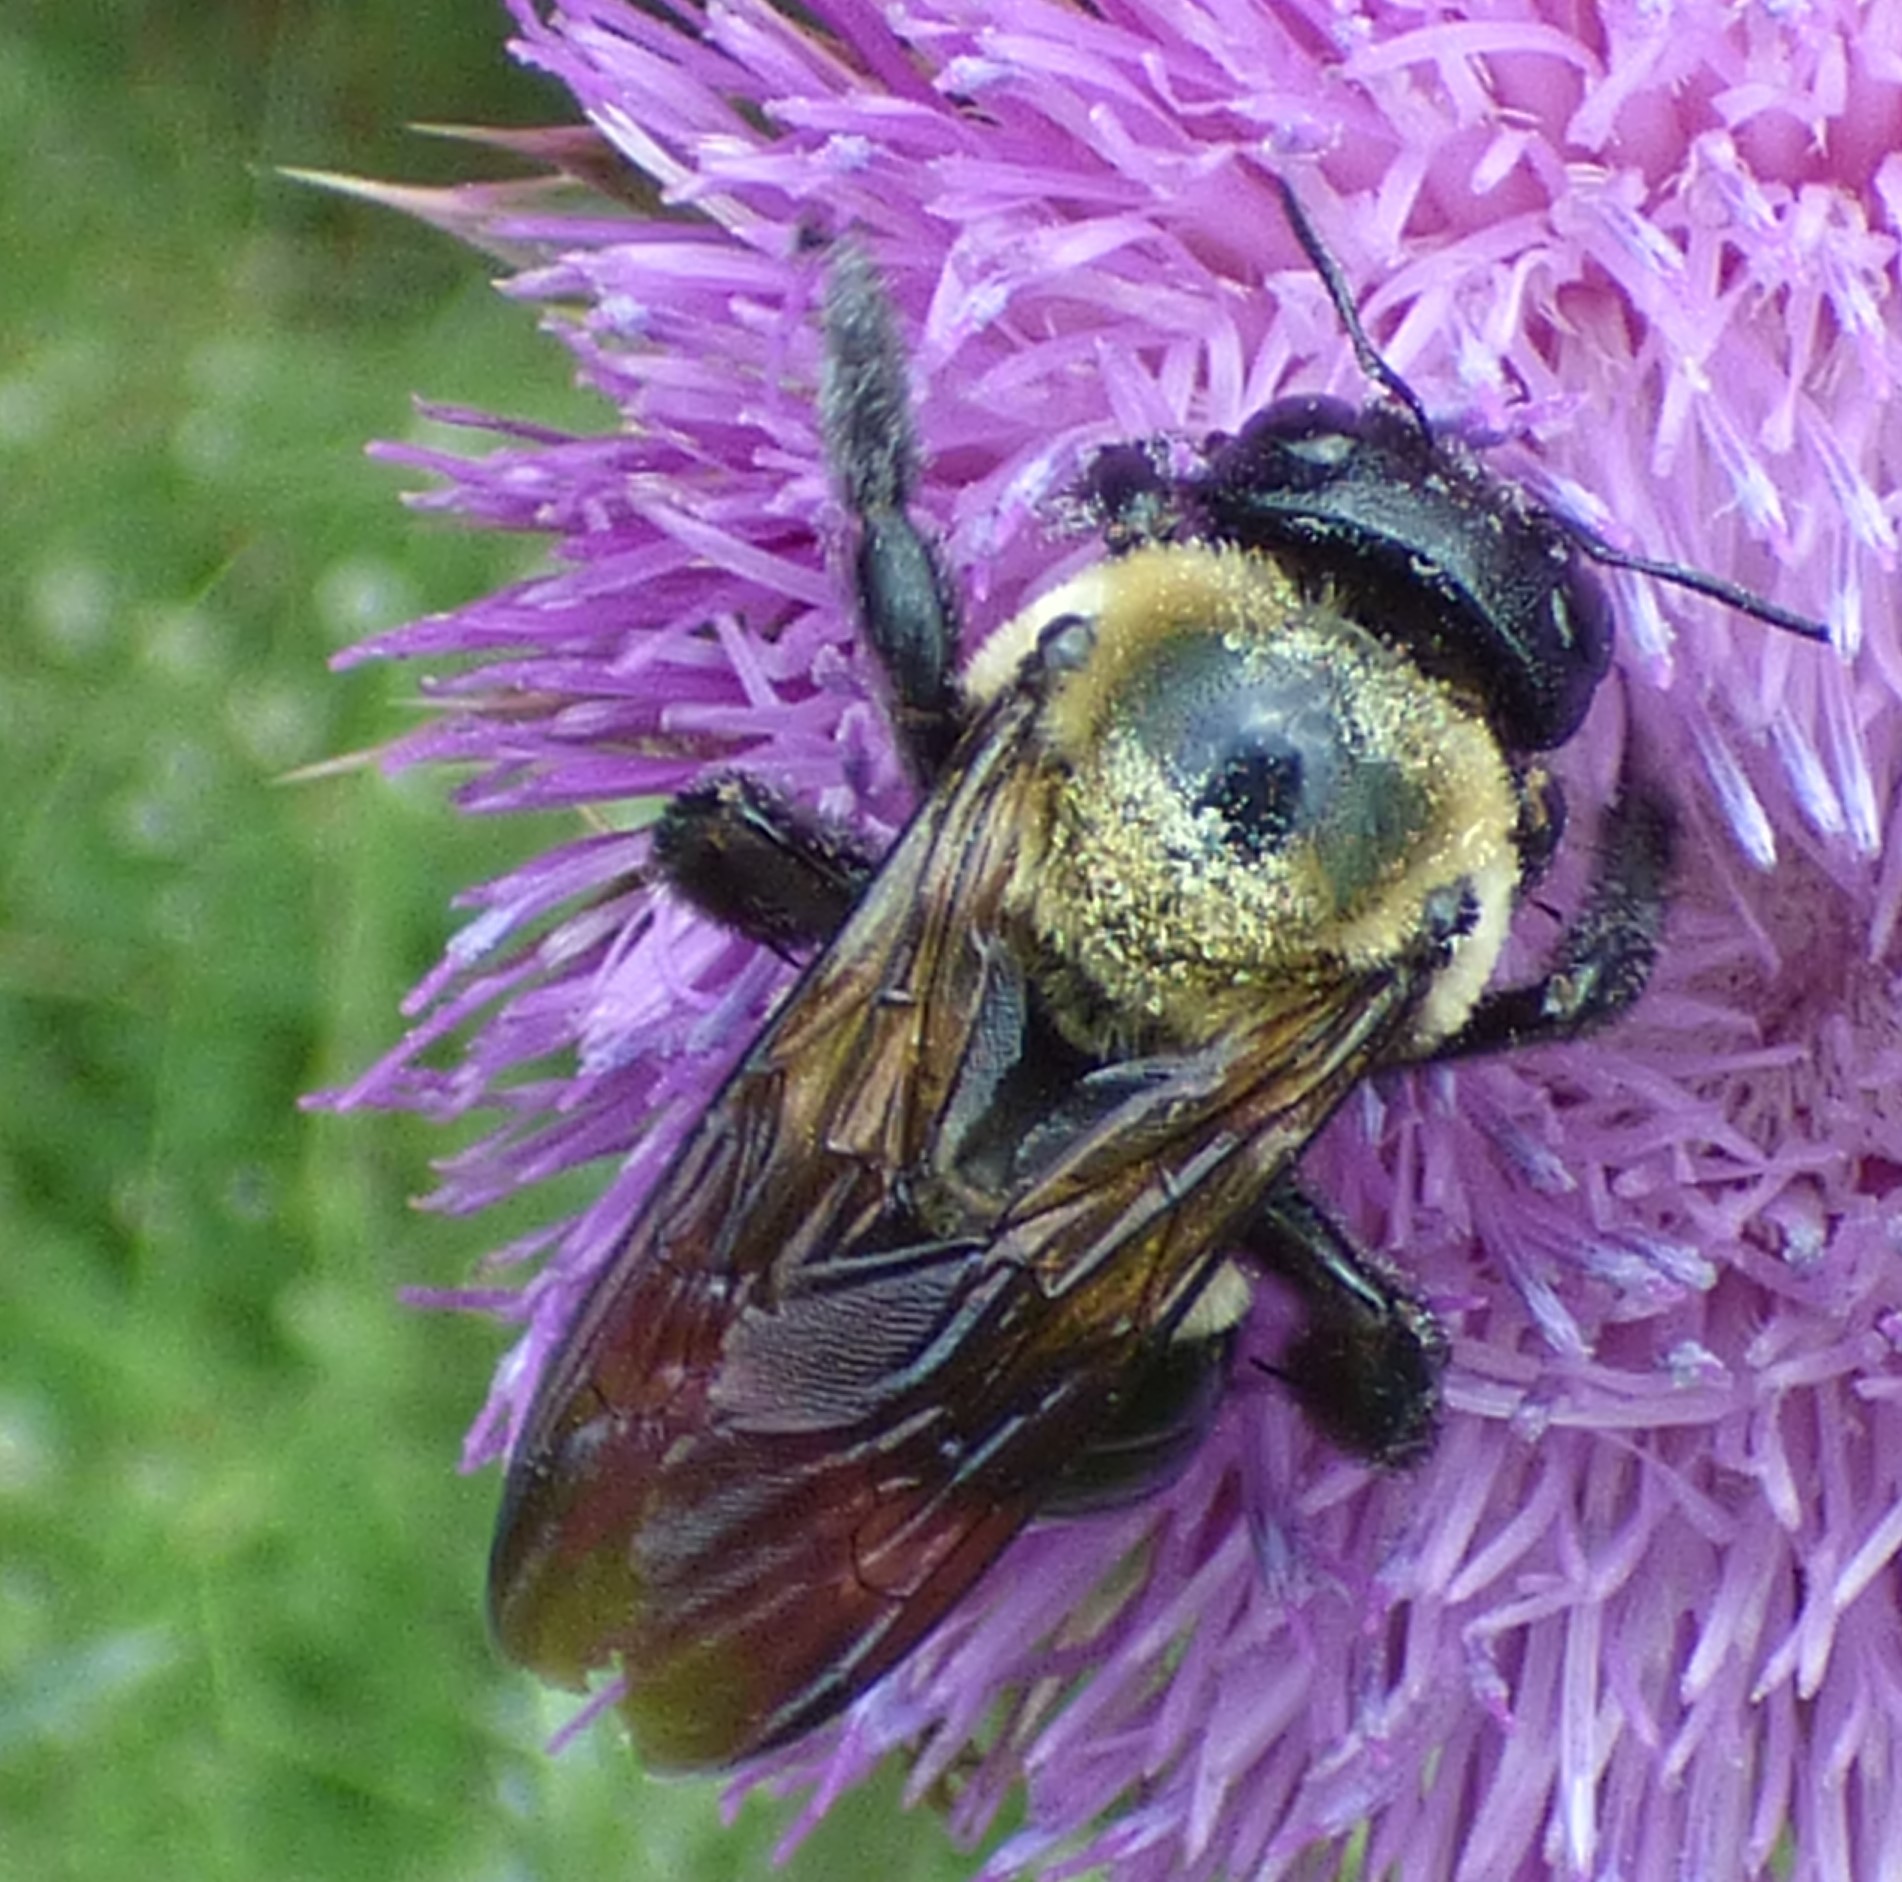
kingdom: Animalia
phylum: Arthropoda
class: Insecta
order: Hymenoptera
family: Apidae
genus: Xylocopa
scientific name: Xylocopa virginica
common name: Carpenter bee
